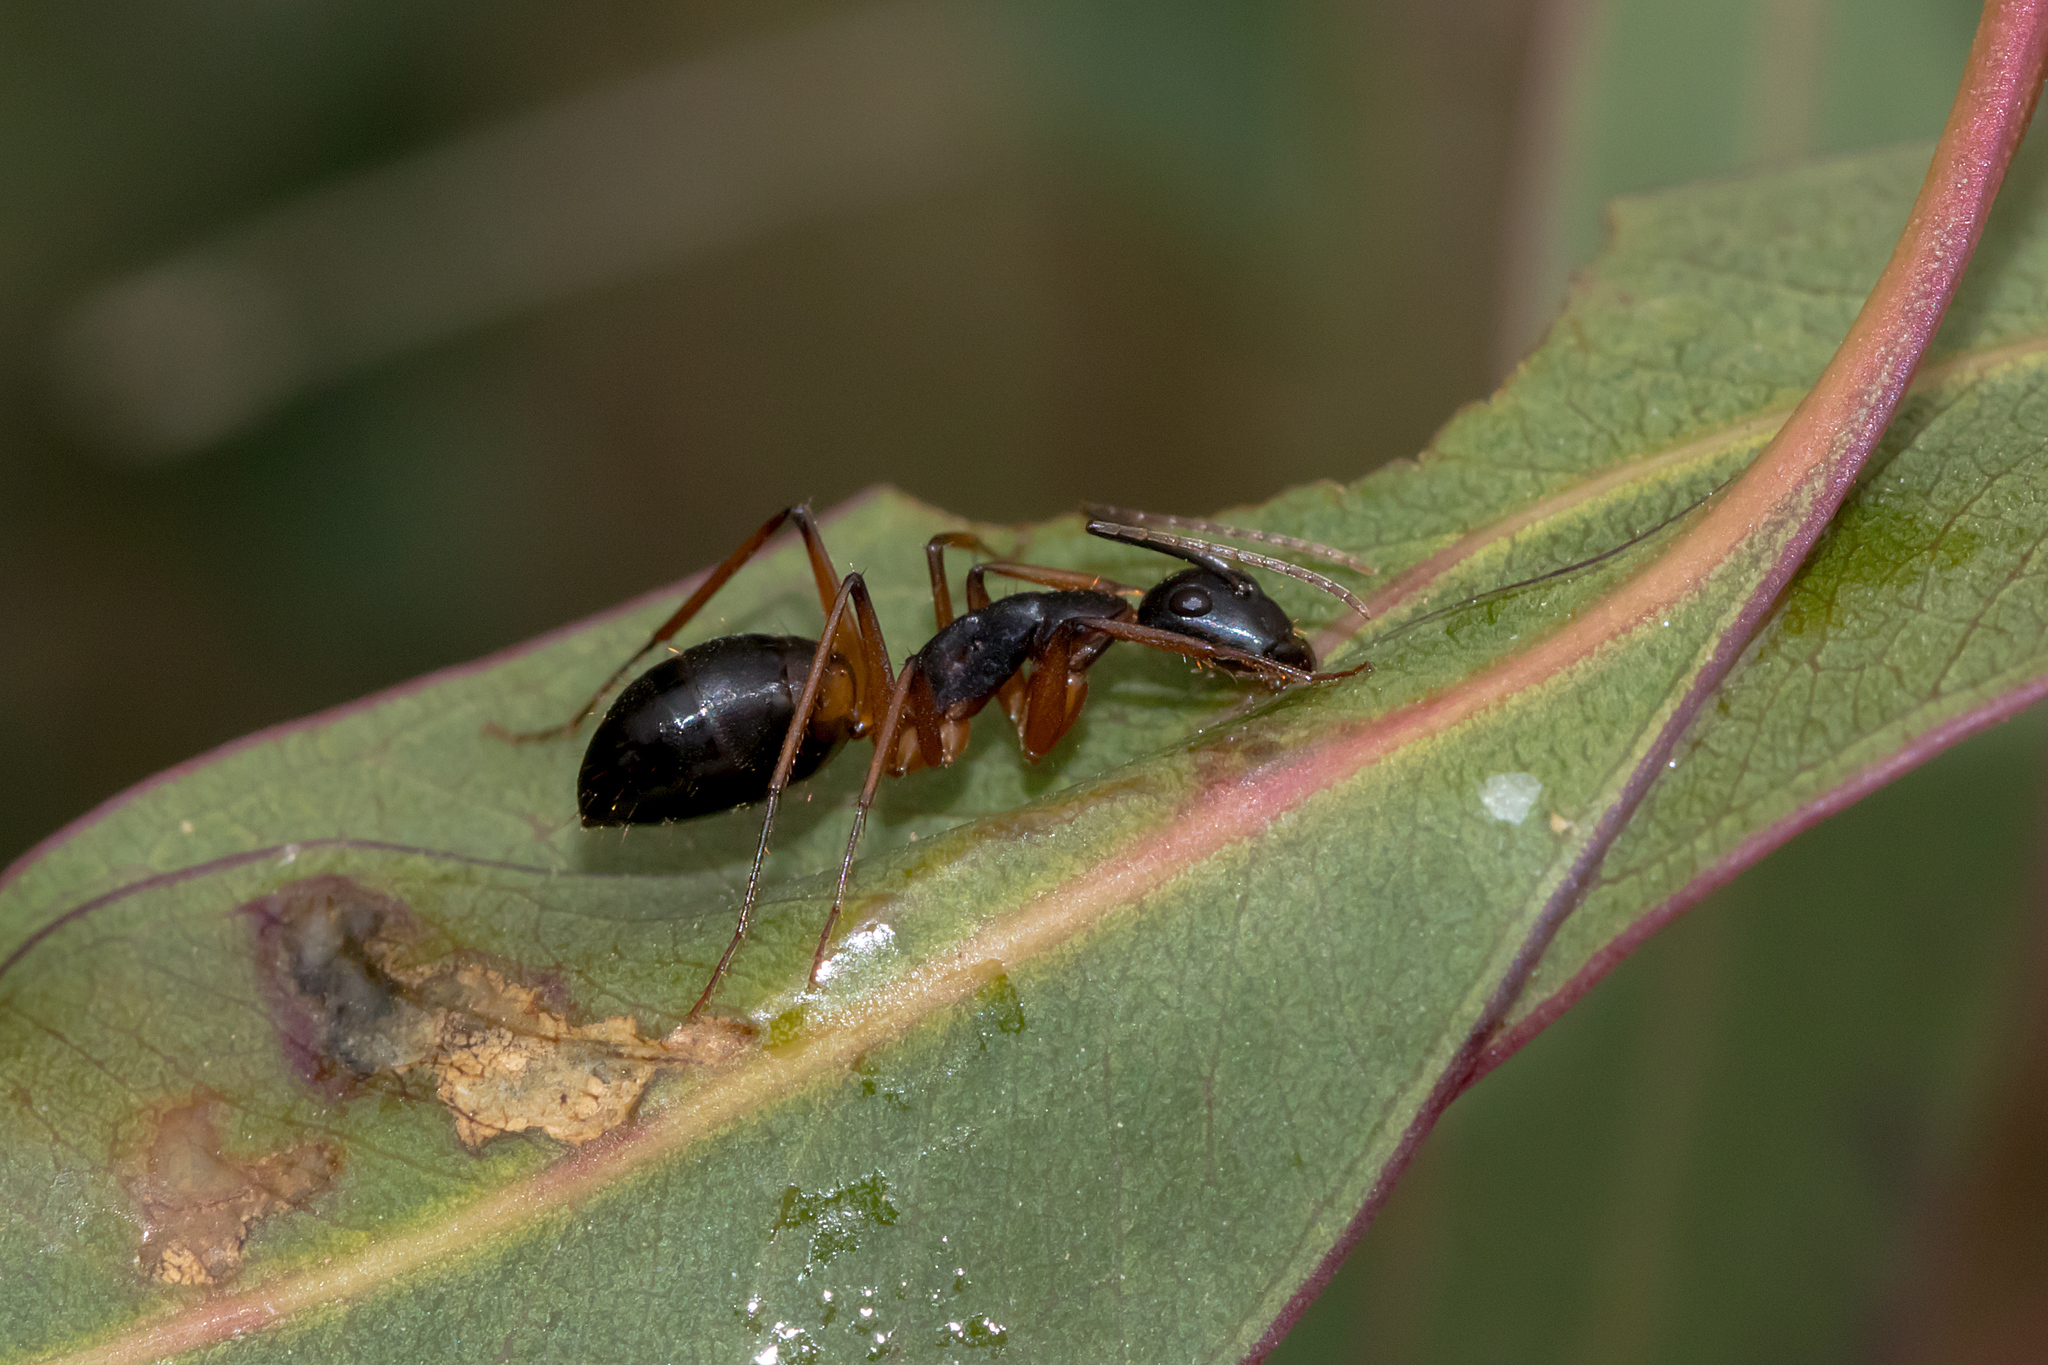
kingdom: Animalia
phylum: Arthropoda
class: Insecta
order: Hymenoptera
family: Formicidae
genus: Camponotus
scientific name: Camponotus consobrinus
